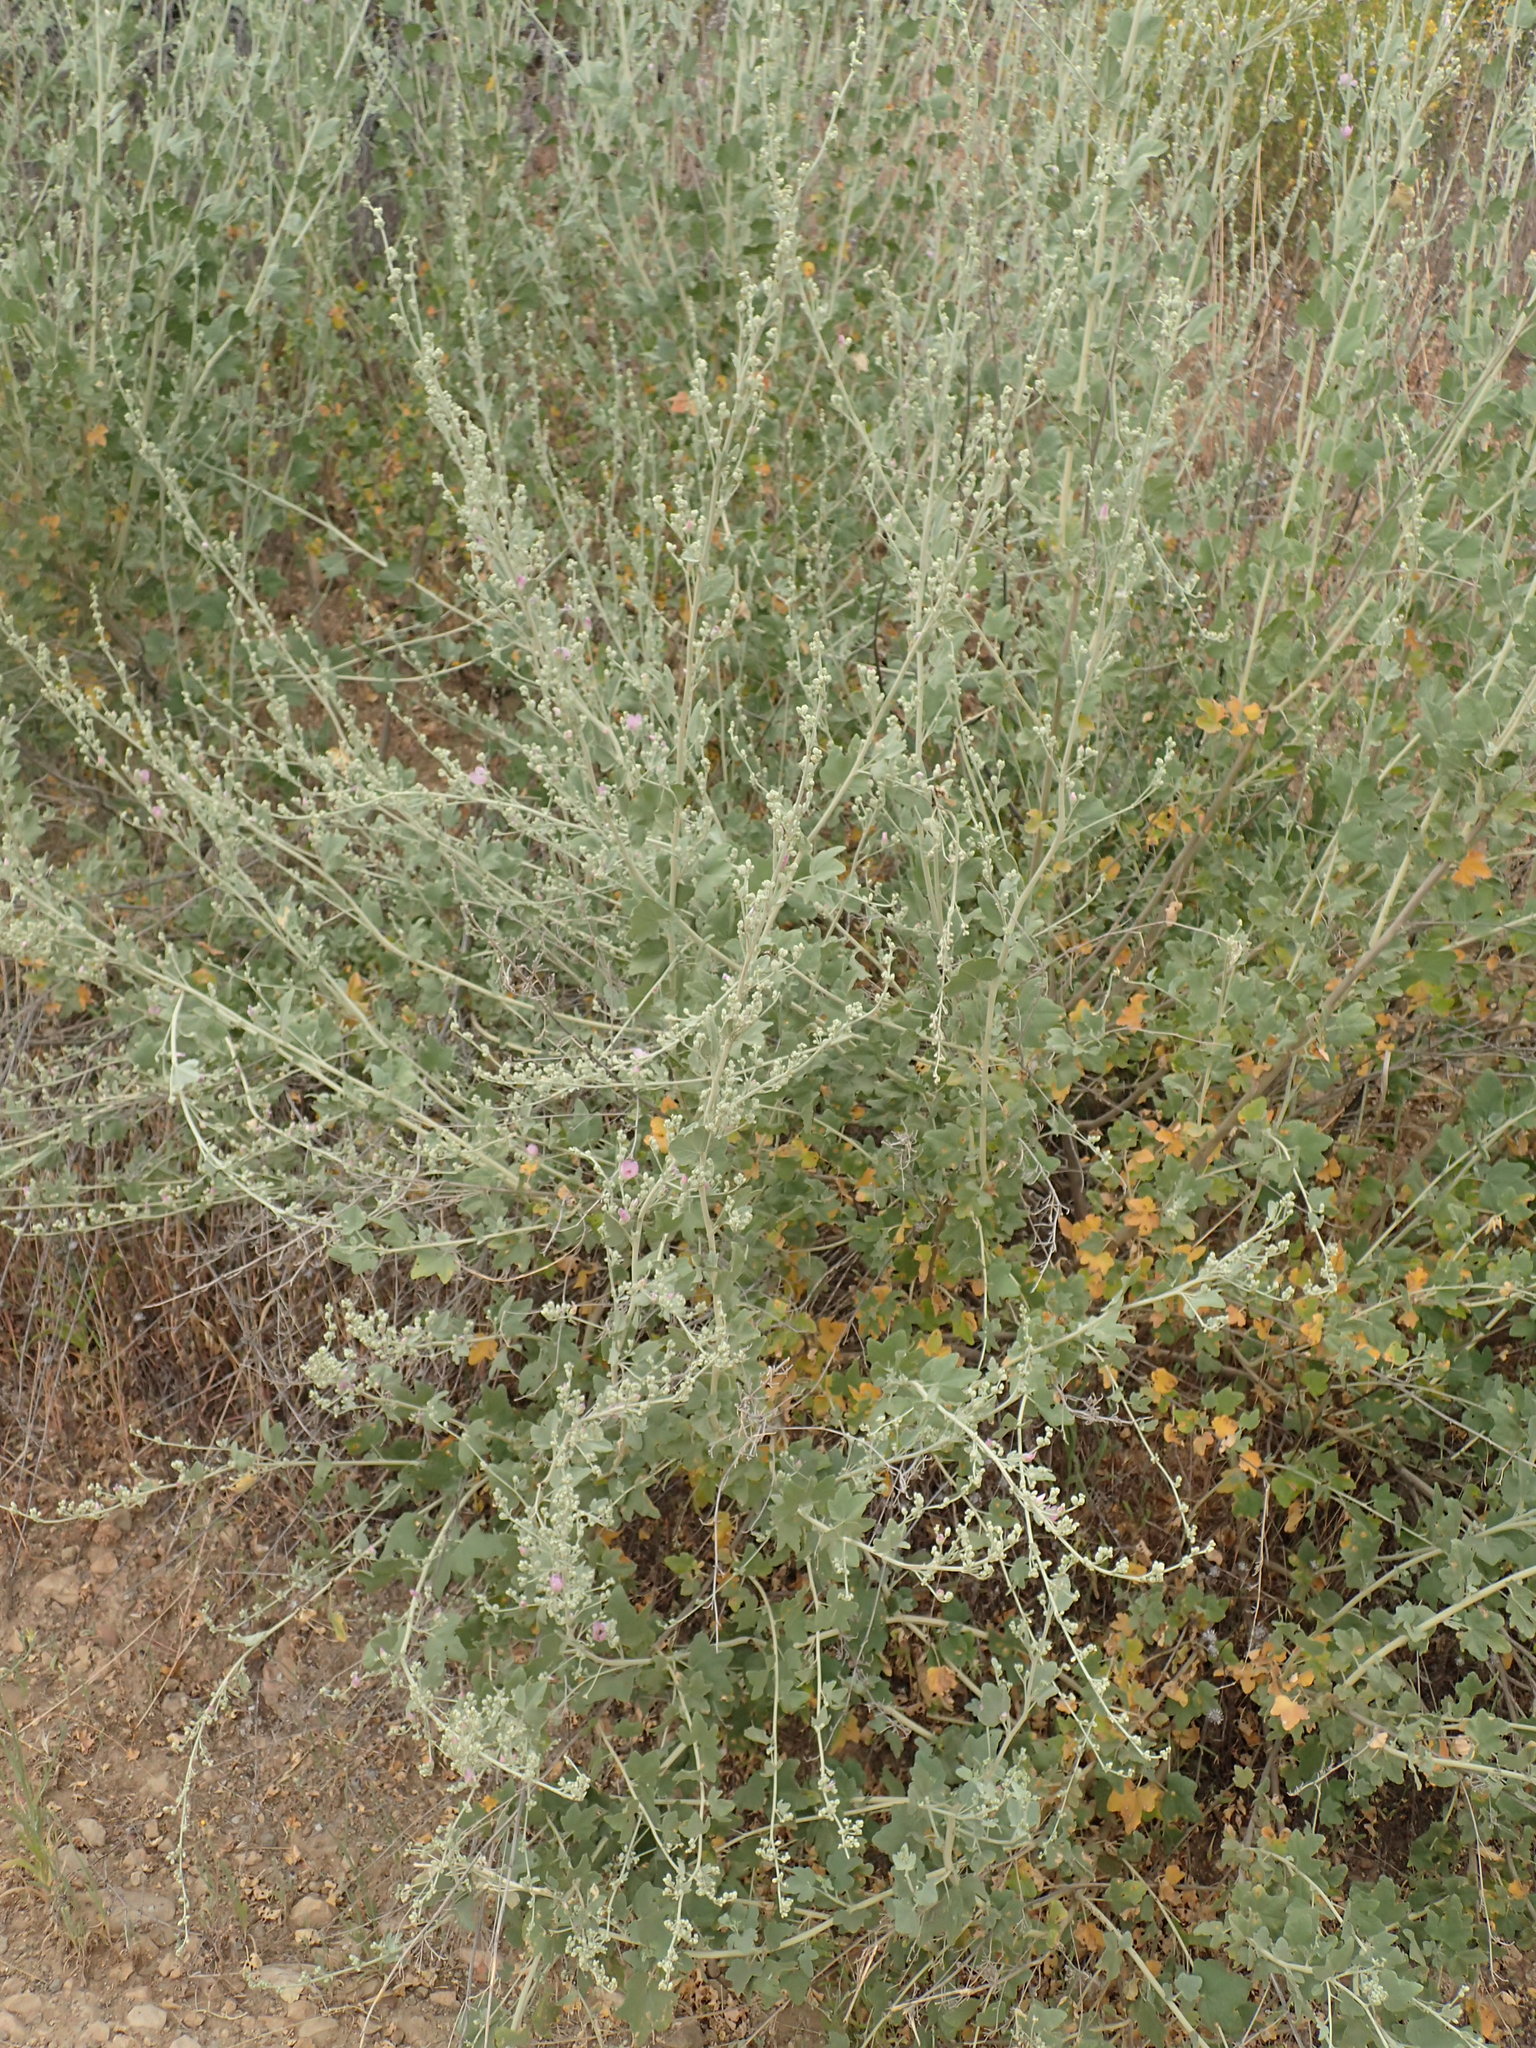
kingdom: Plantae
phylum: Tracheophyta
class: Magnoliopsida
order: Malvales
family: Malvaceae
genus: Malacothamnus
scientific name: Malacothamnus fasciculatus
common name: Sant cruz island bush-mallow
